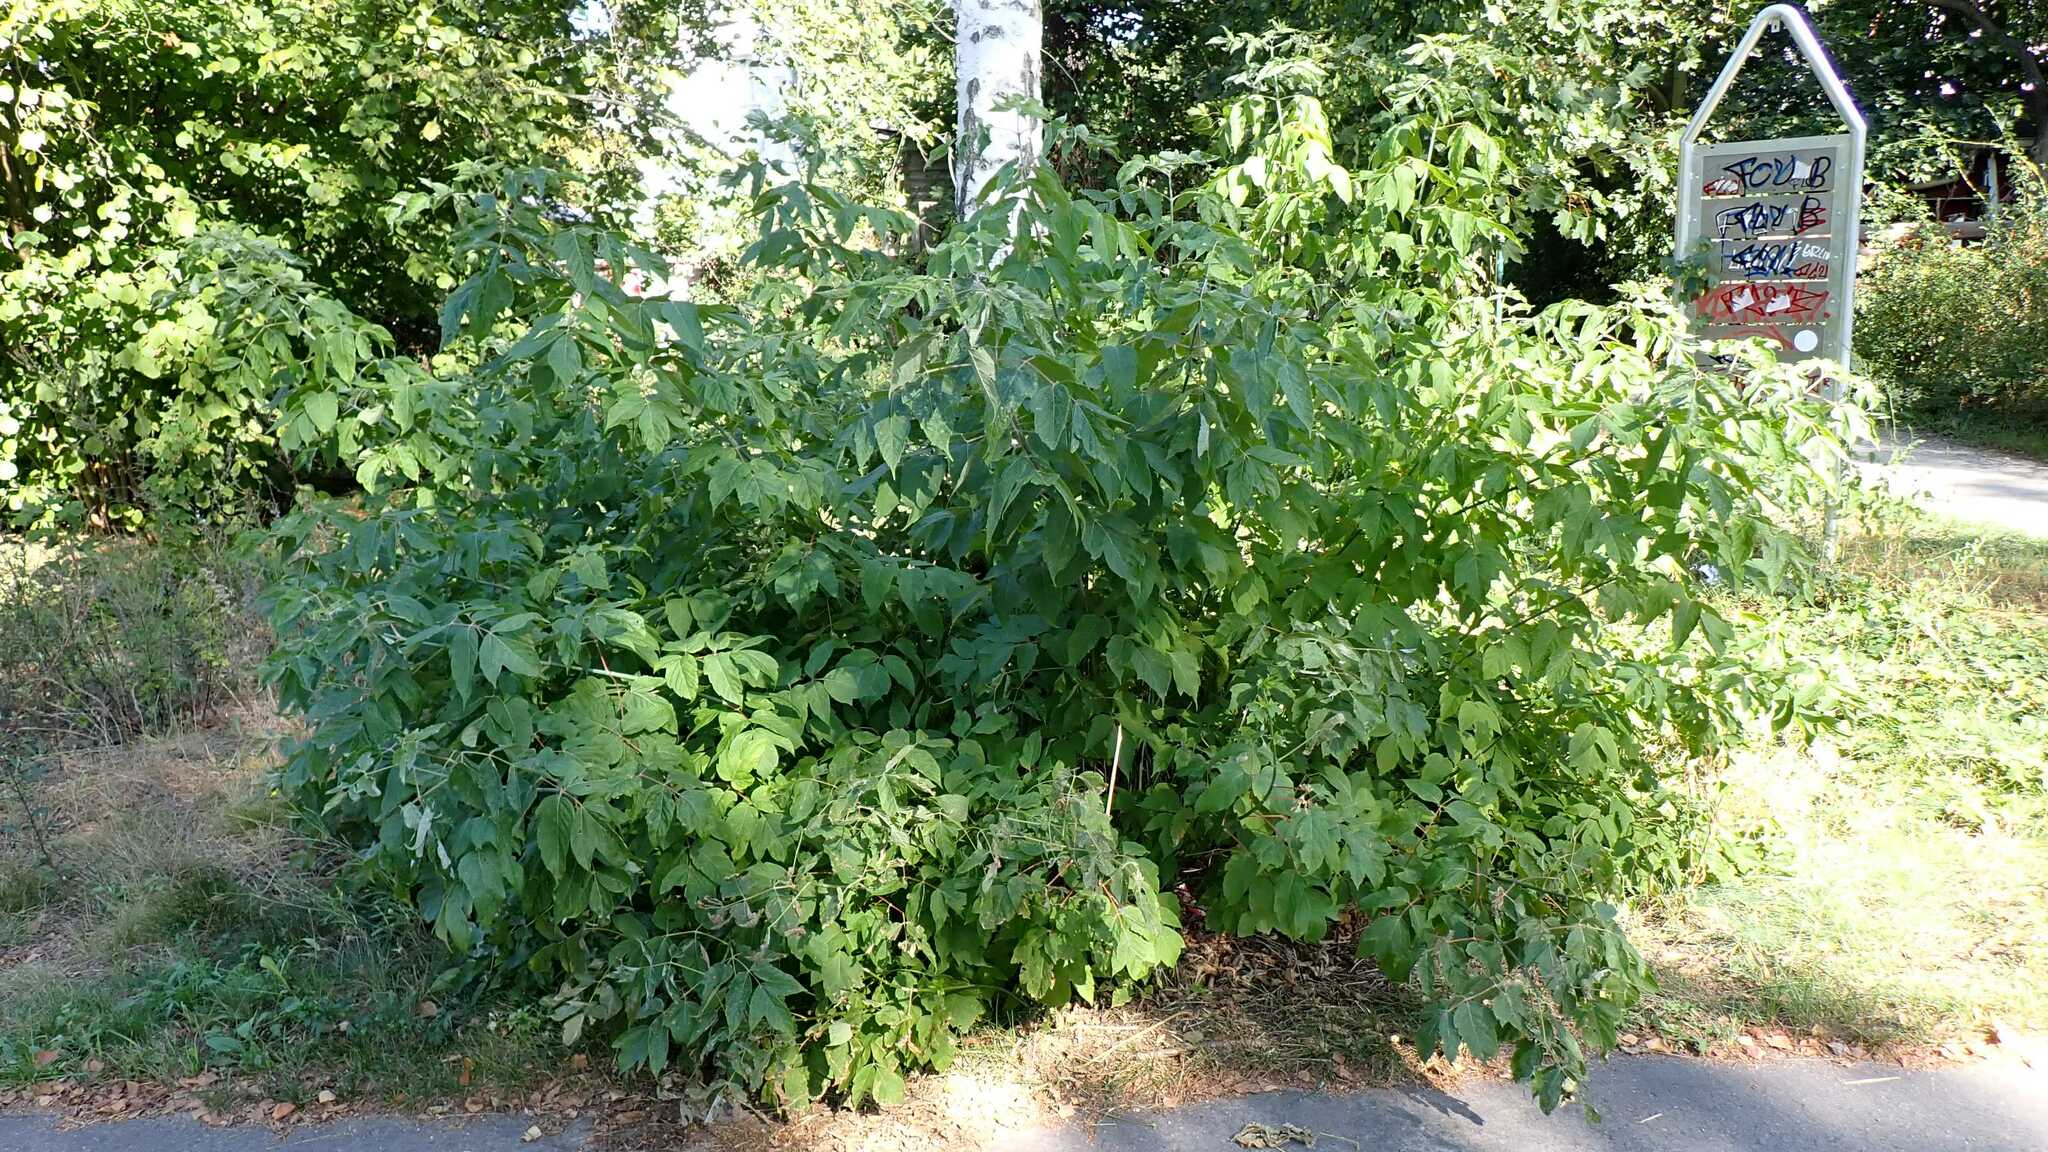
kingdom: Plantae
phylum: Tracheophyta
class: Magnoliopsida
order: Sapindales
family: Sapindaceae
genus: Acer
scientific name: Acer negundo
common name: Ashleaf maple
